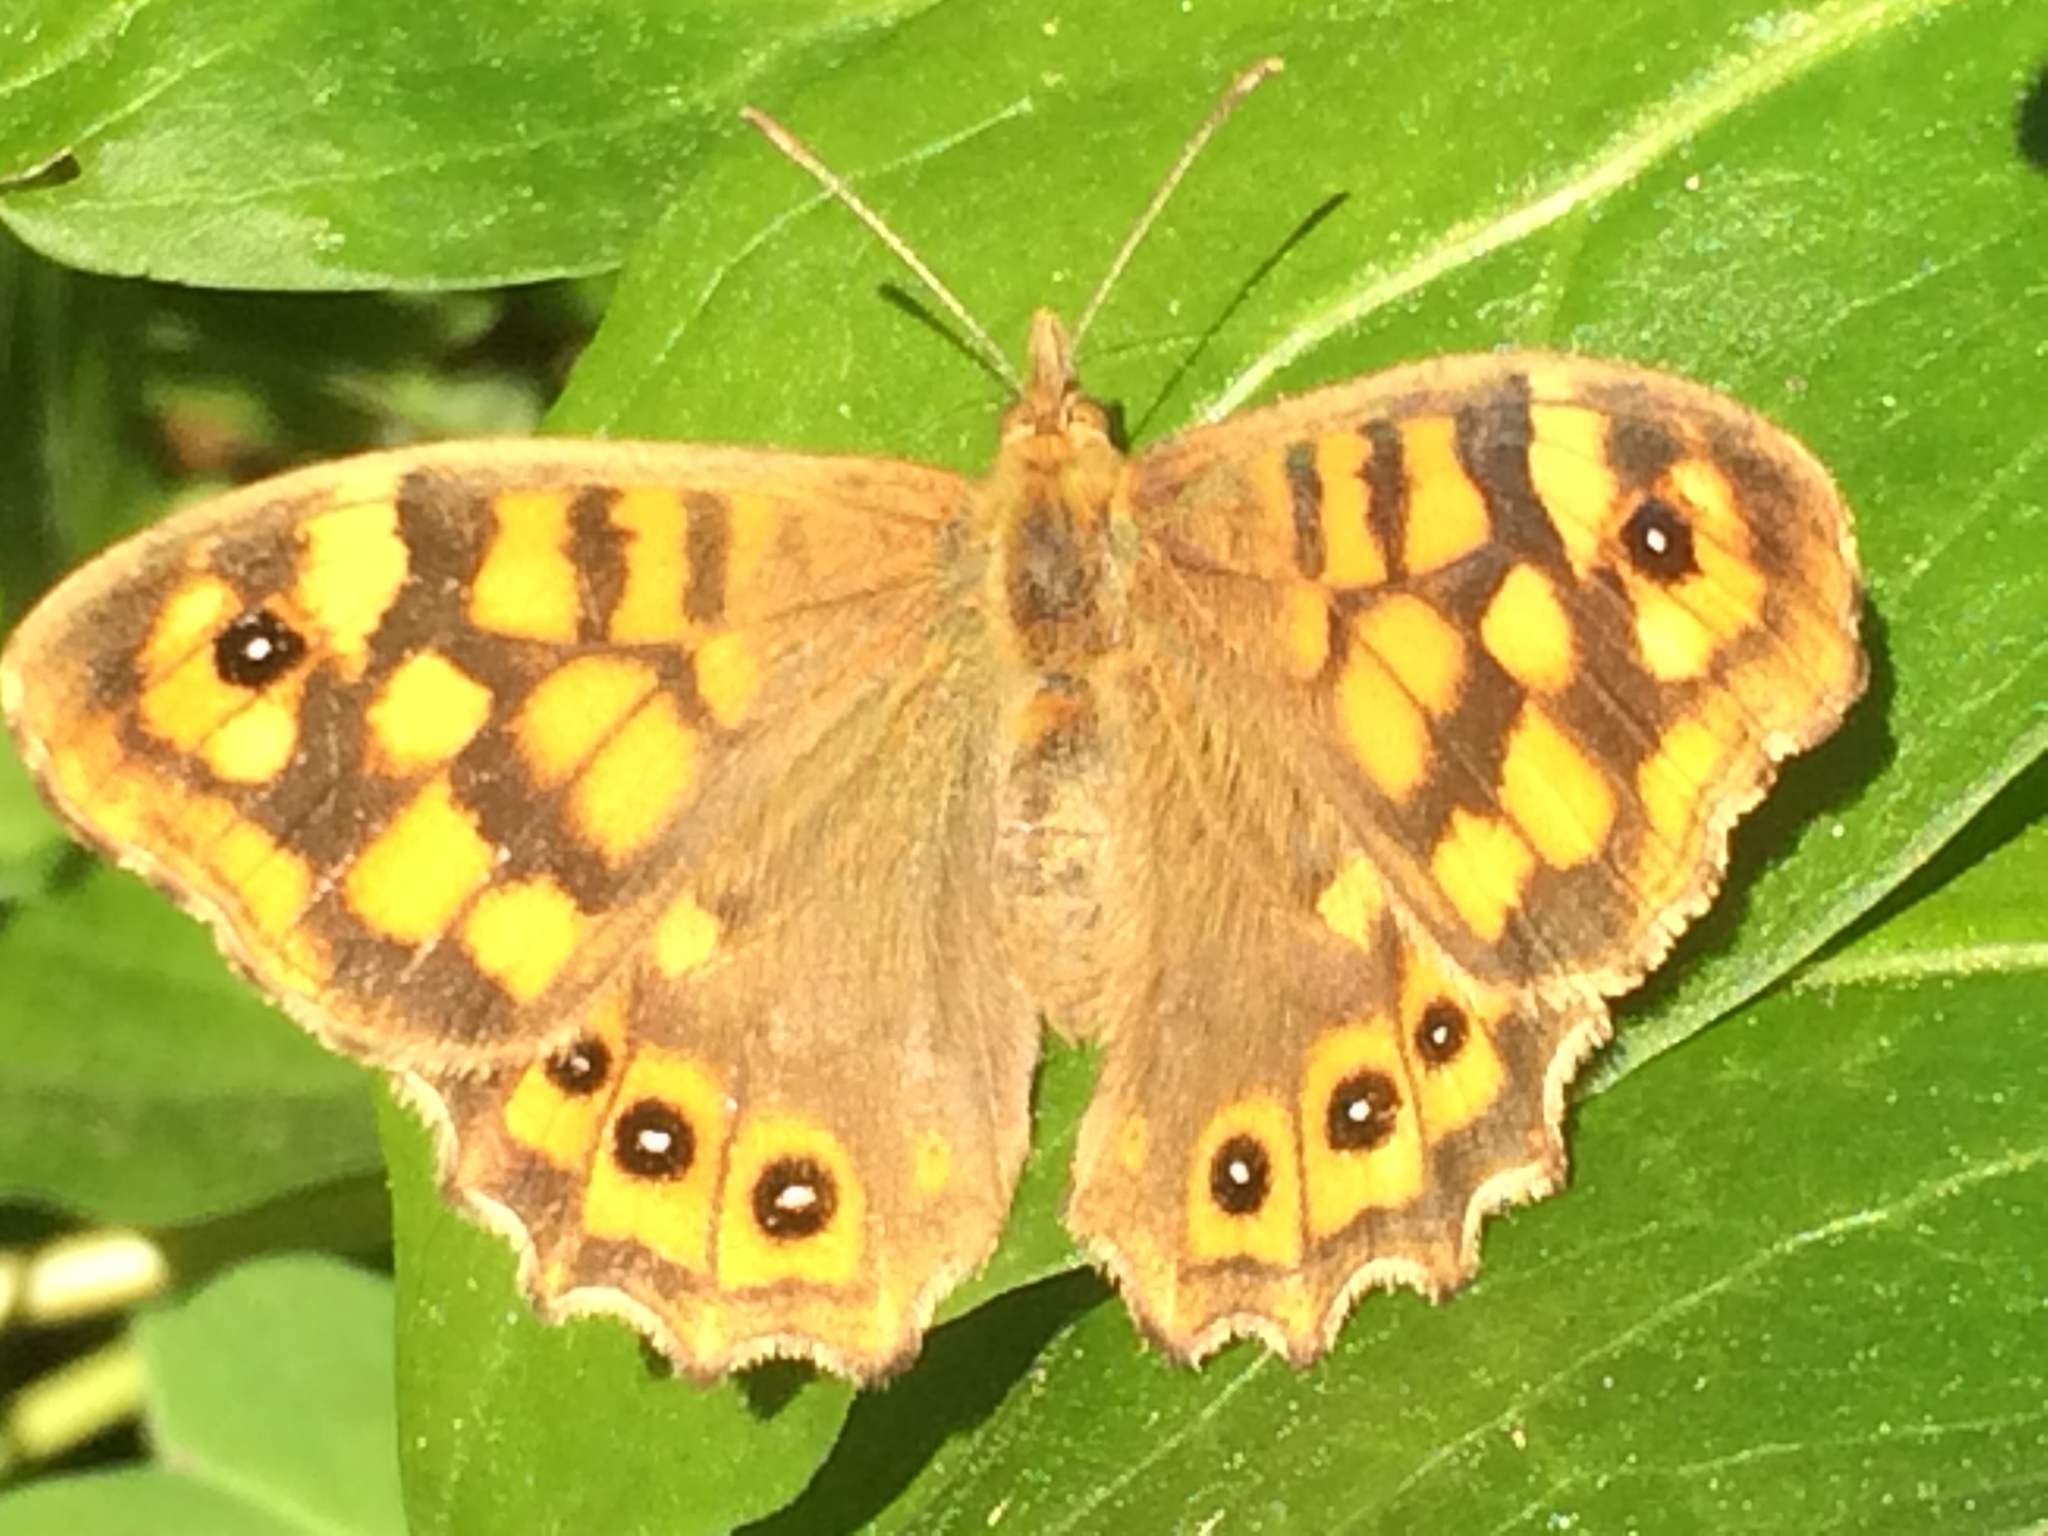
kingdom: Animalia
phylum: Arthropoda
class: Insecta
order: Lepidoptera
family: Nymphalidae
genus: Pararge
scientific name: Pararge aegeria
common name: Speckled wood
